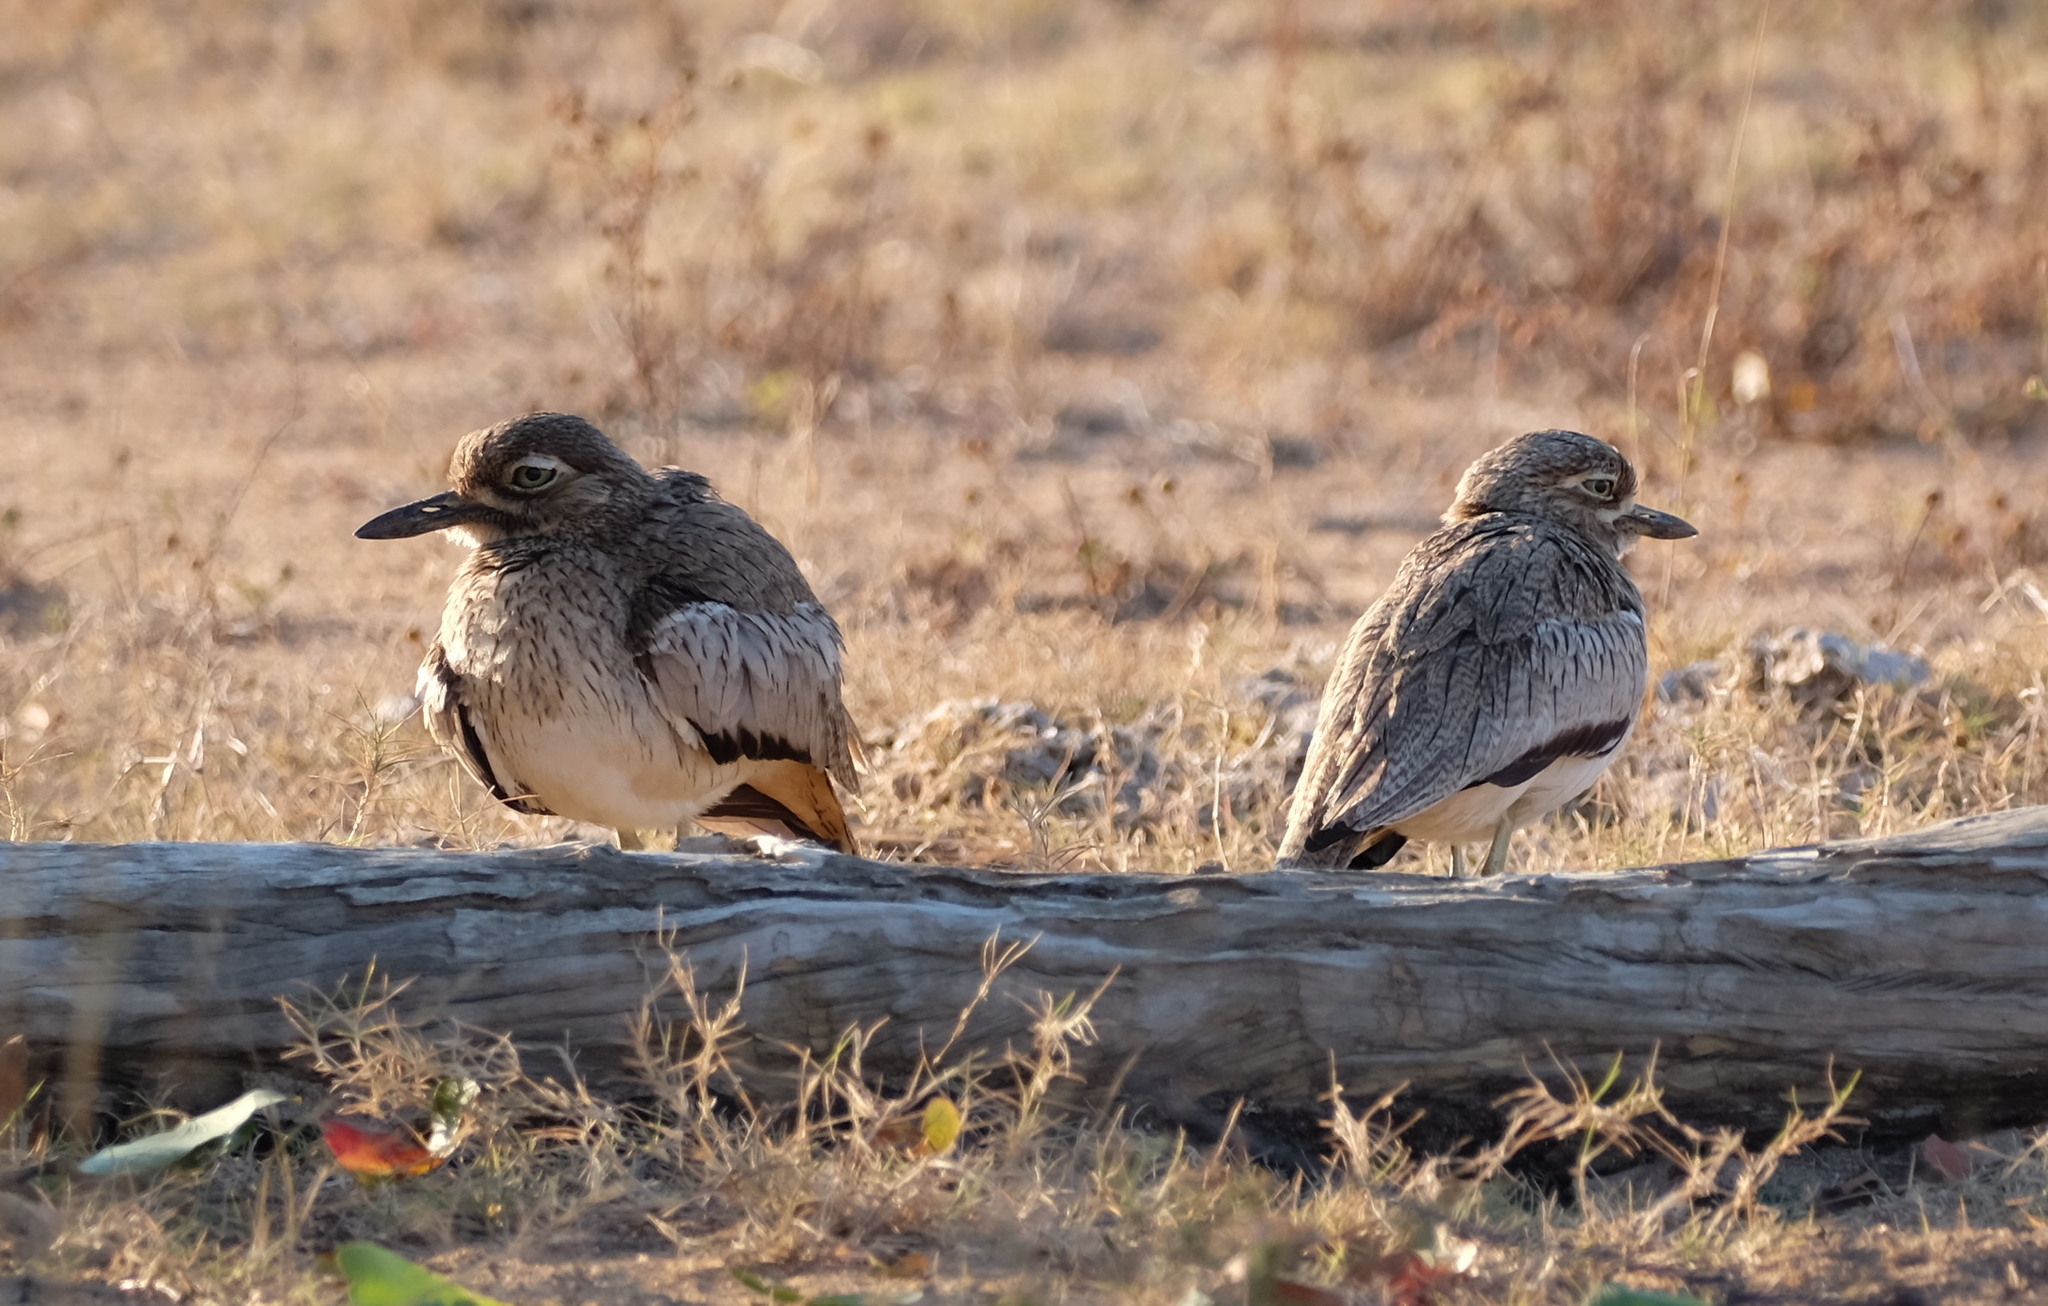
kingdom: Animalia
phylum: Chordata
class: Aves
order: Charadriiformes
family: Burhinidae
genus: Burhinus
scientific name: Burhinus vermiculatus
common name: Water thick-knee
